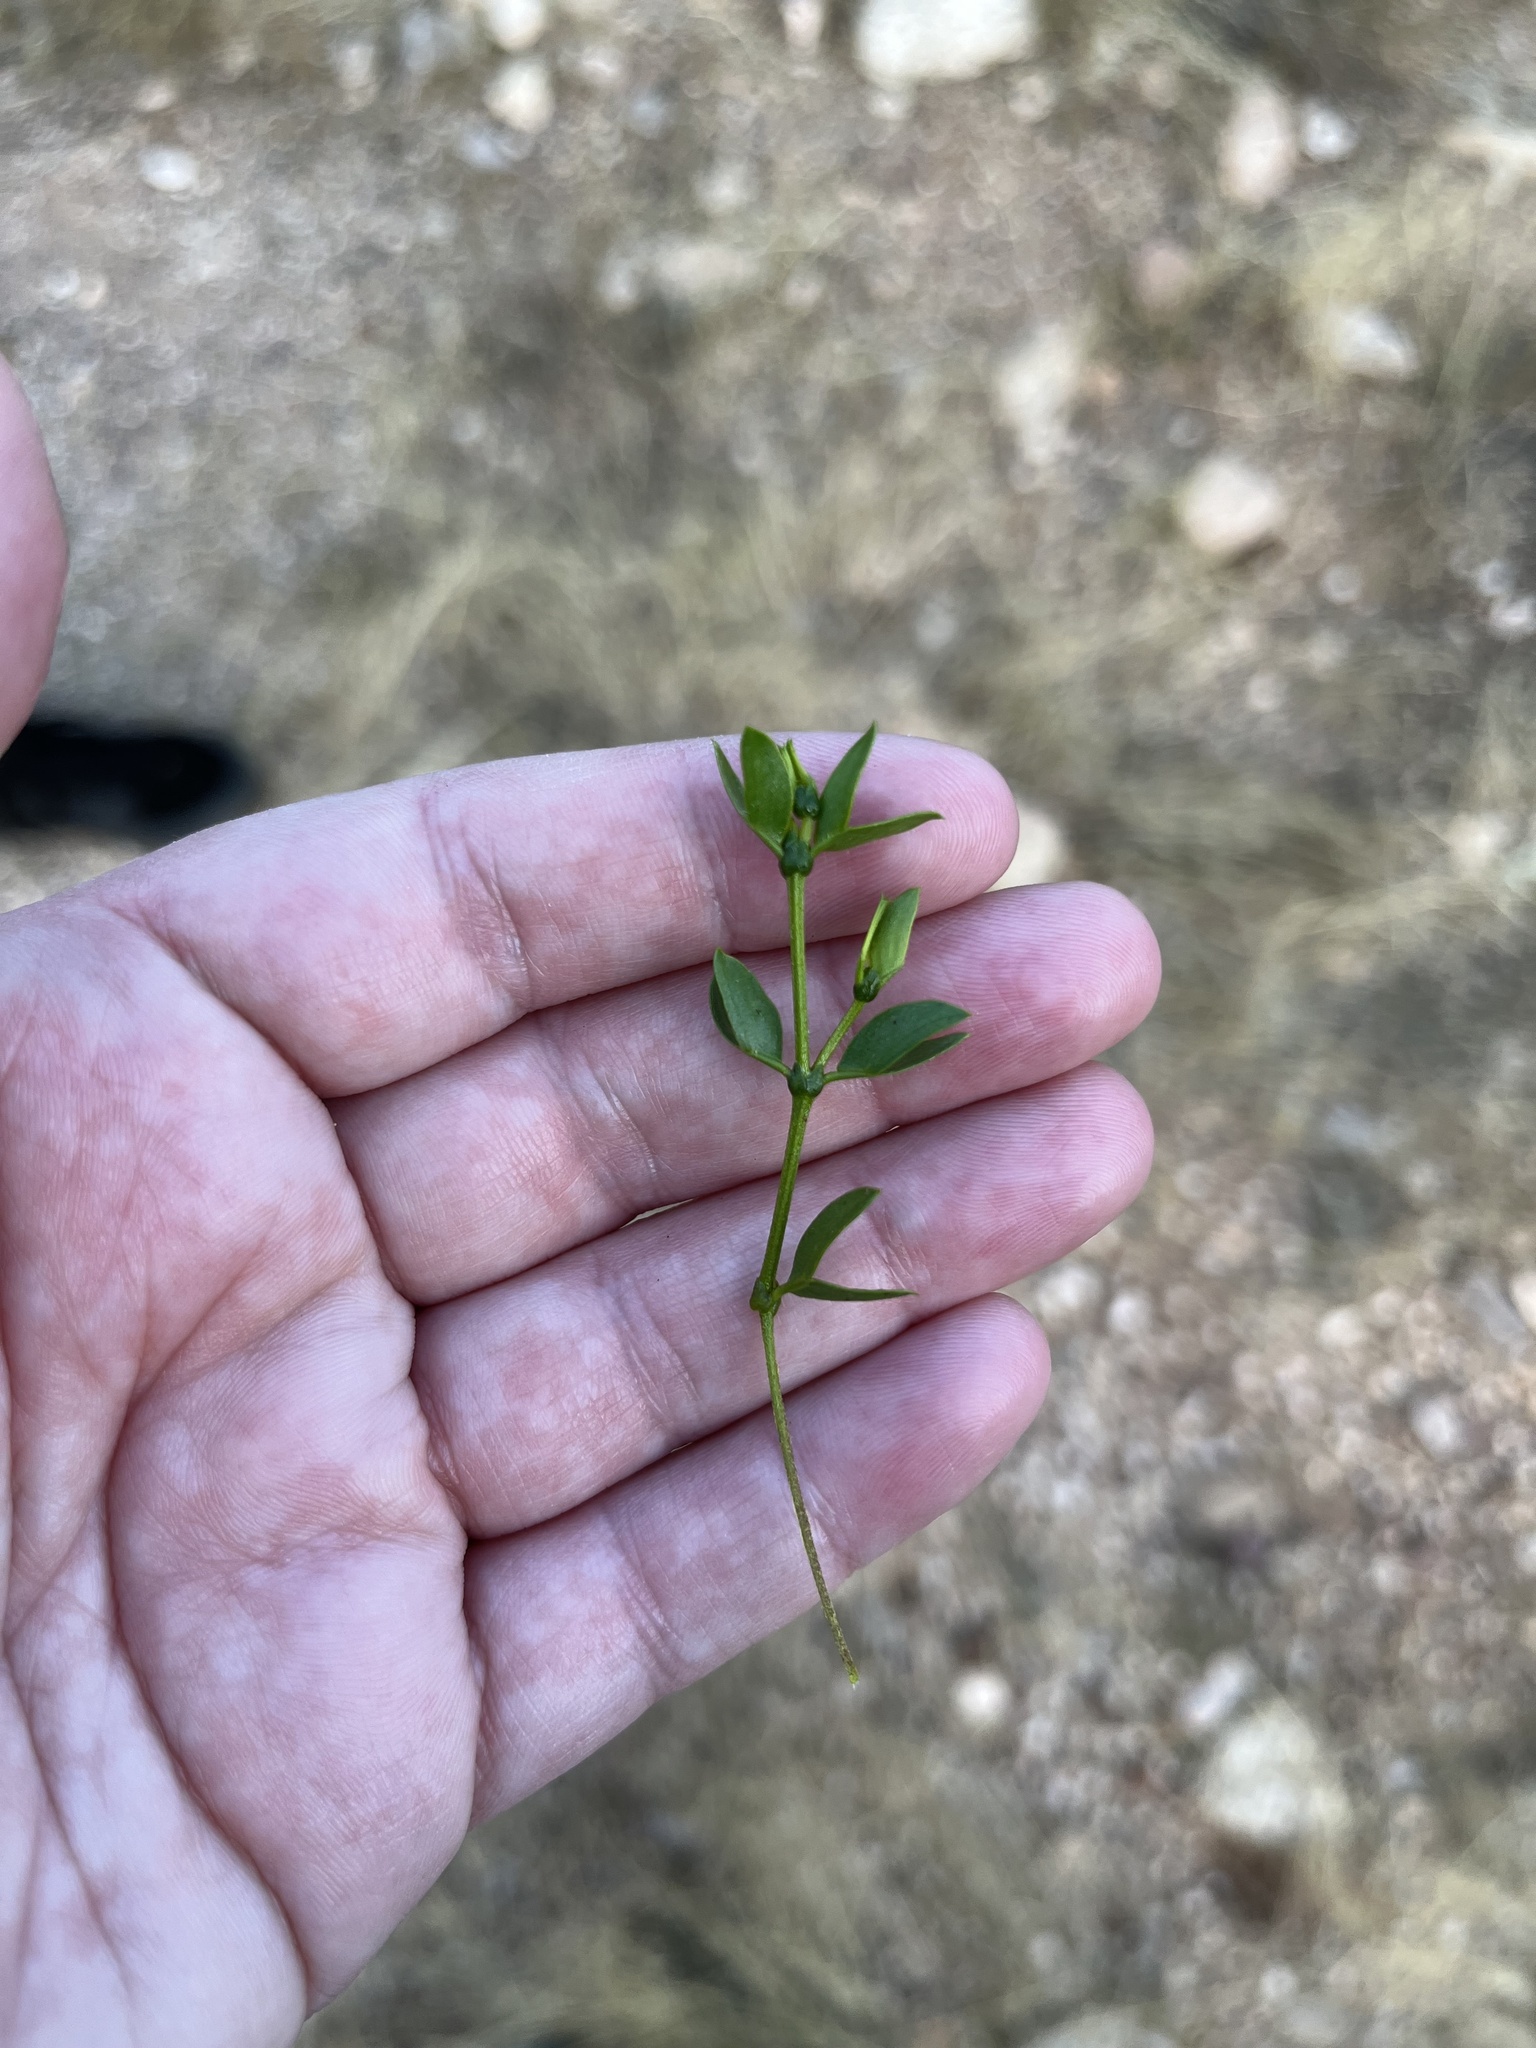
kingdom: Plantae
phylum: Tracheophyta
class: Magnoliopsida
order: Zygophyllales
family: Zygophyllaceae
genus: Larrea
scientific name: Larrea tridentata
